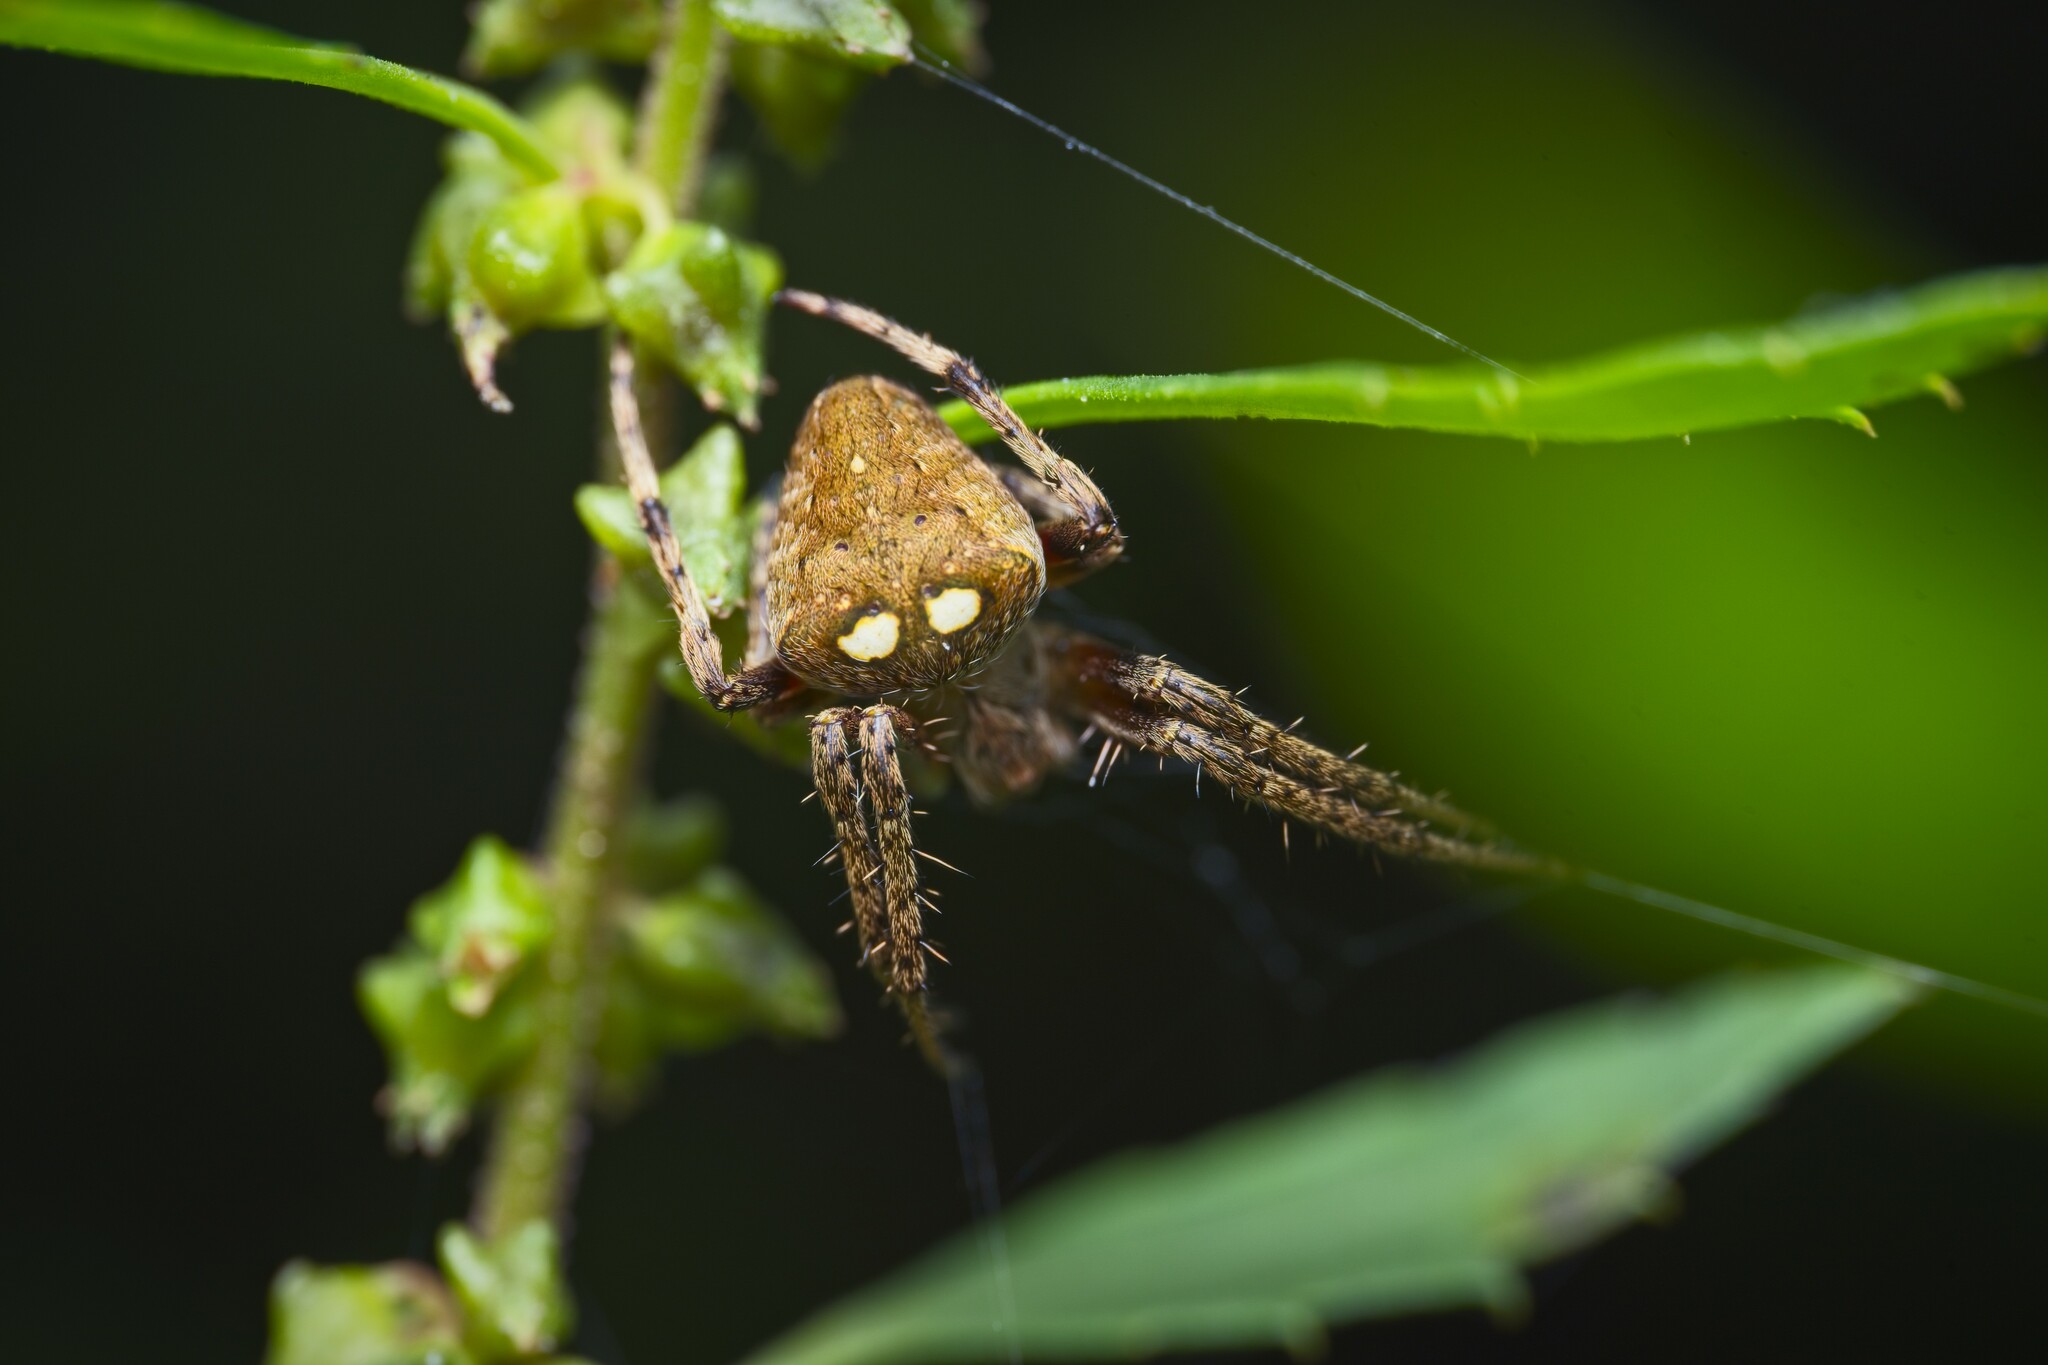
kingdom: Animalia
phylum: Arthropoda
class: Arachnida
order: Araneae
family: Araneidae
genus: Zealaranea
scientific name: Zealaranea crassa
